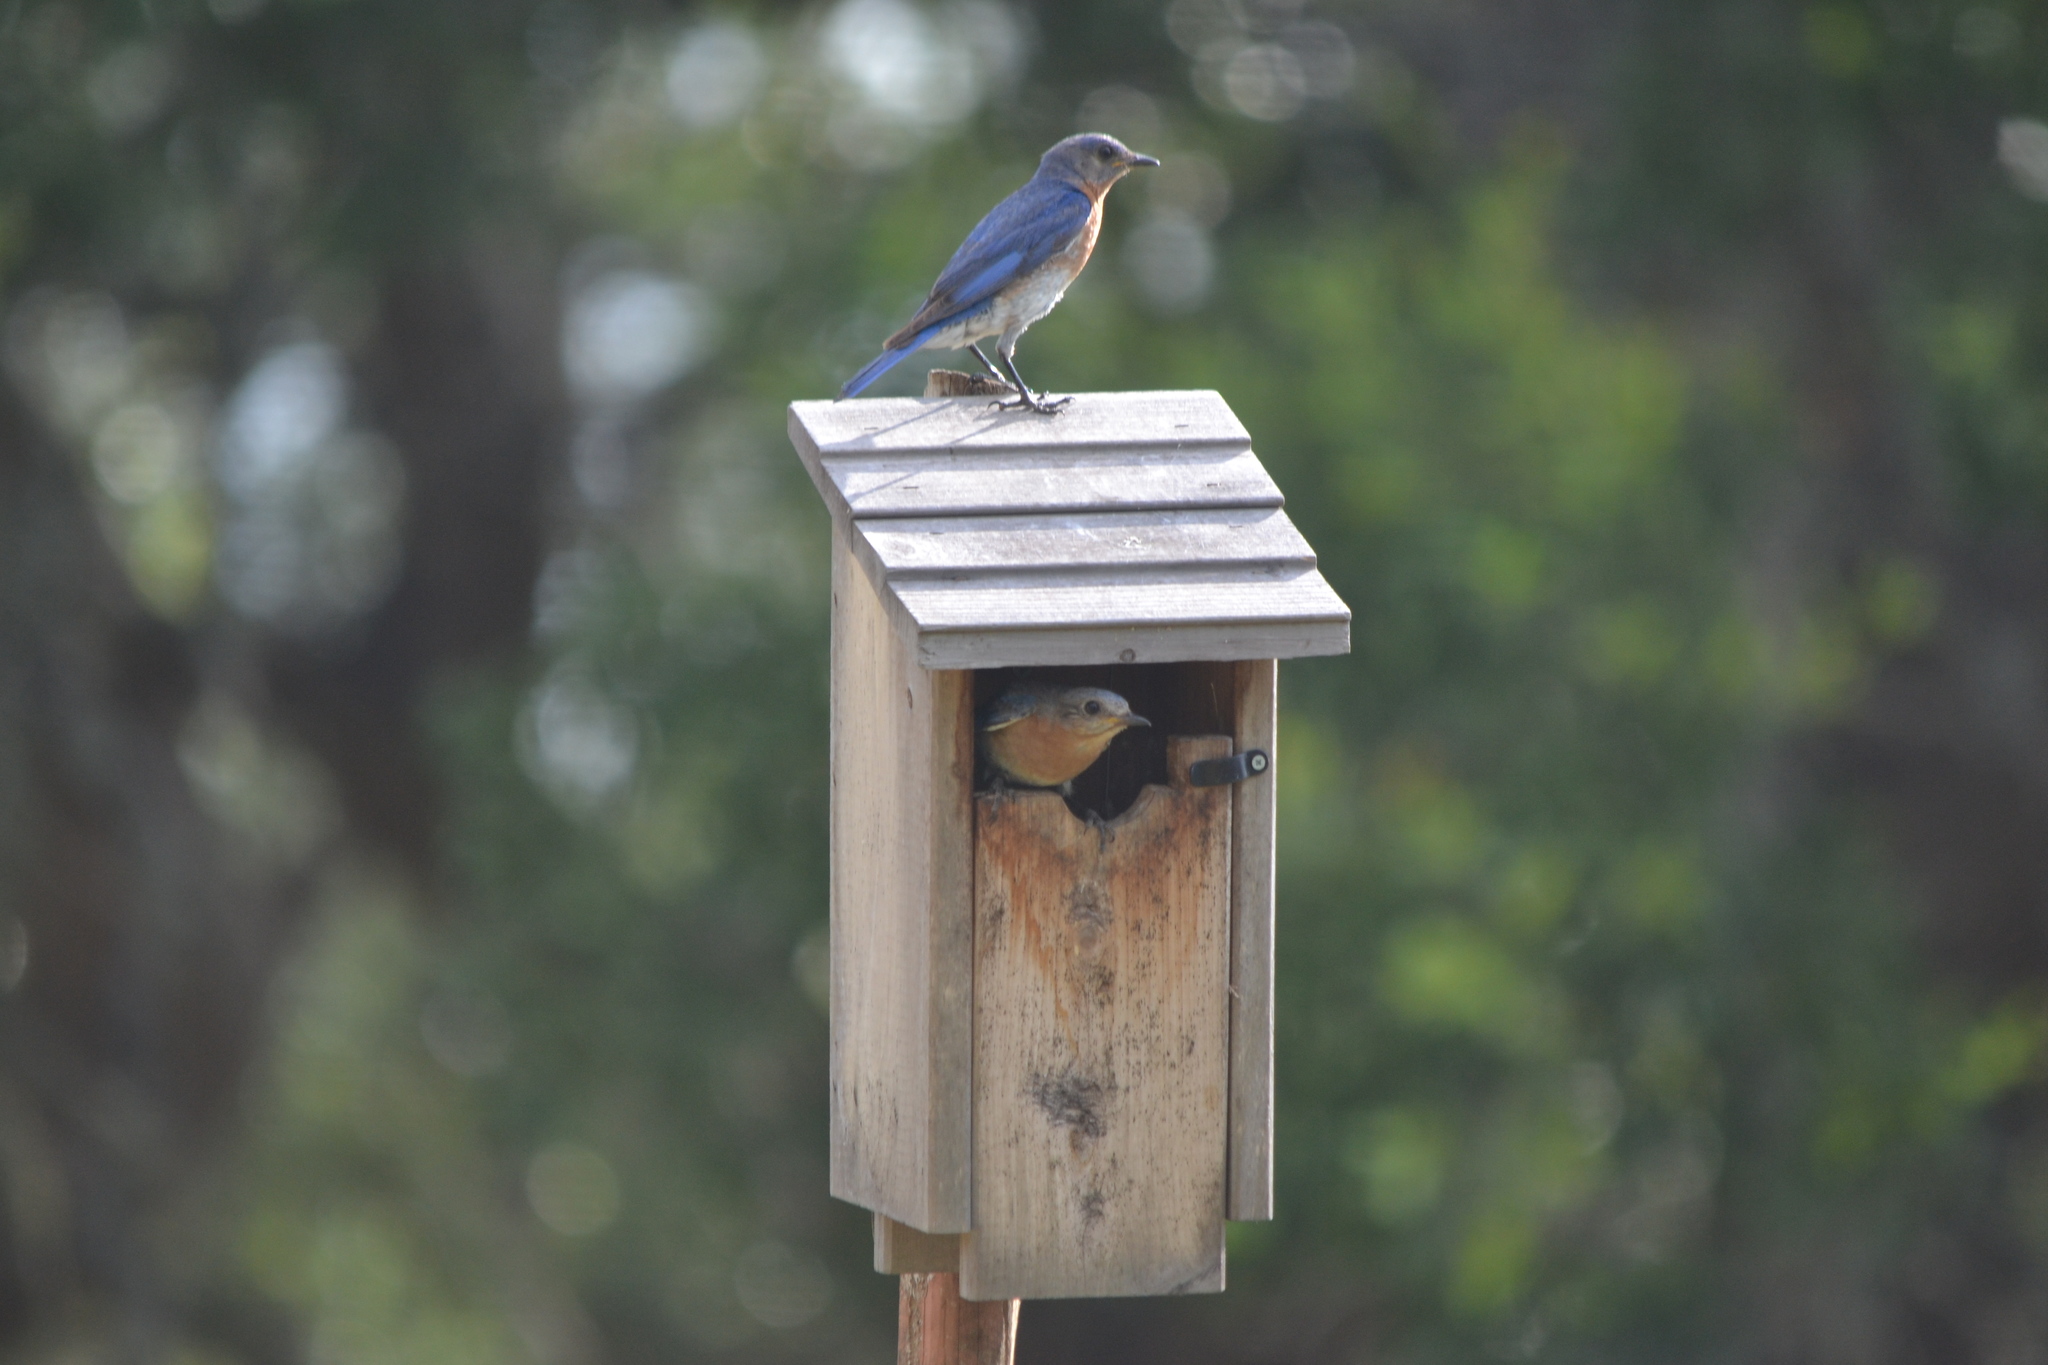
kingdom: Animalia
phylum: Chordata
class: Aves
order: Passeriformes
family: Turdidae
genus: Sialia
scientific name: Sialia sialis
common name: Eastern bluebird
